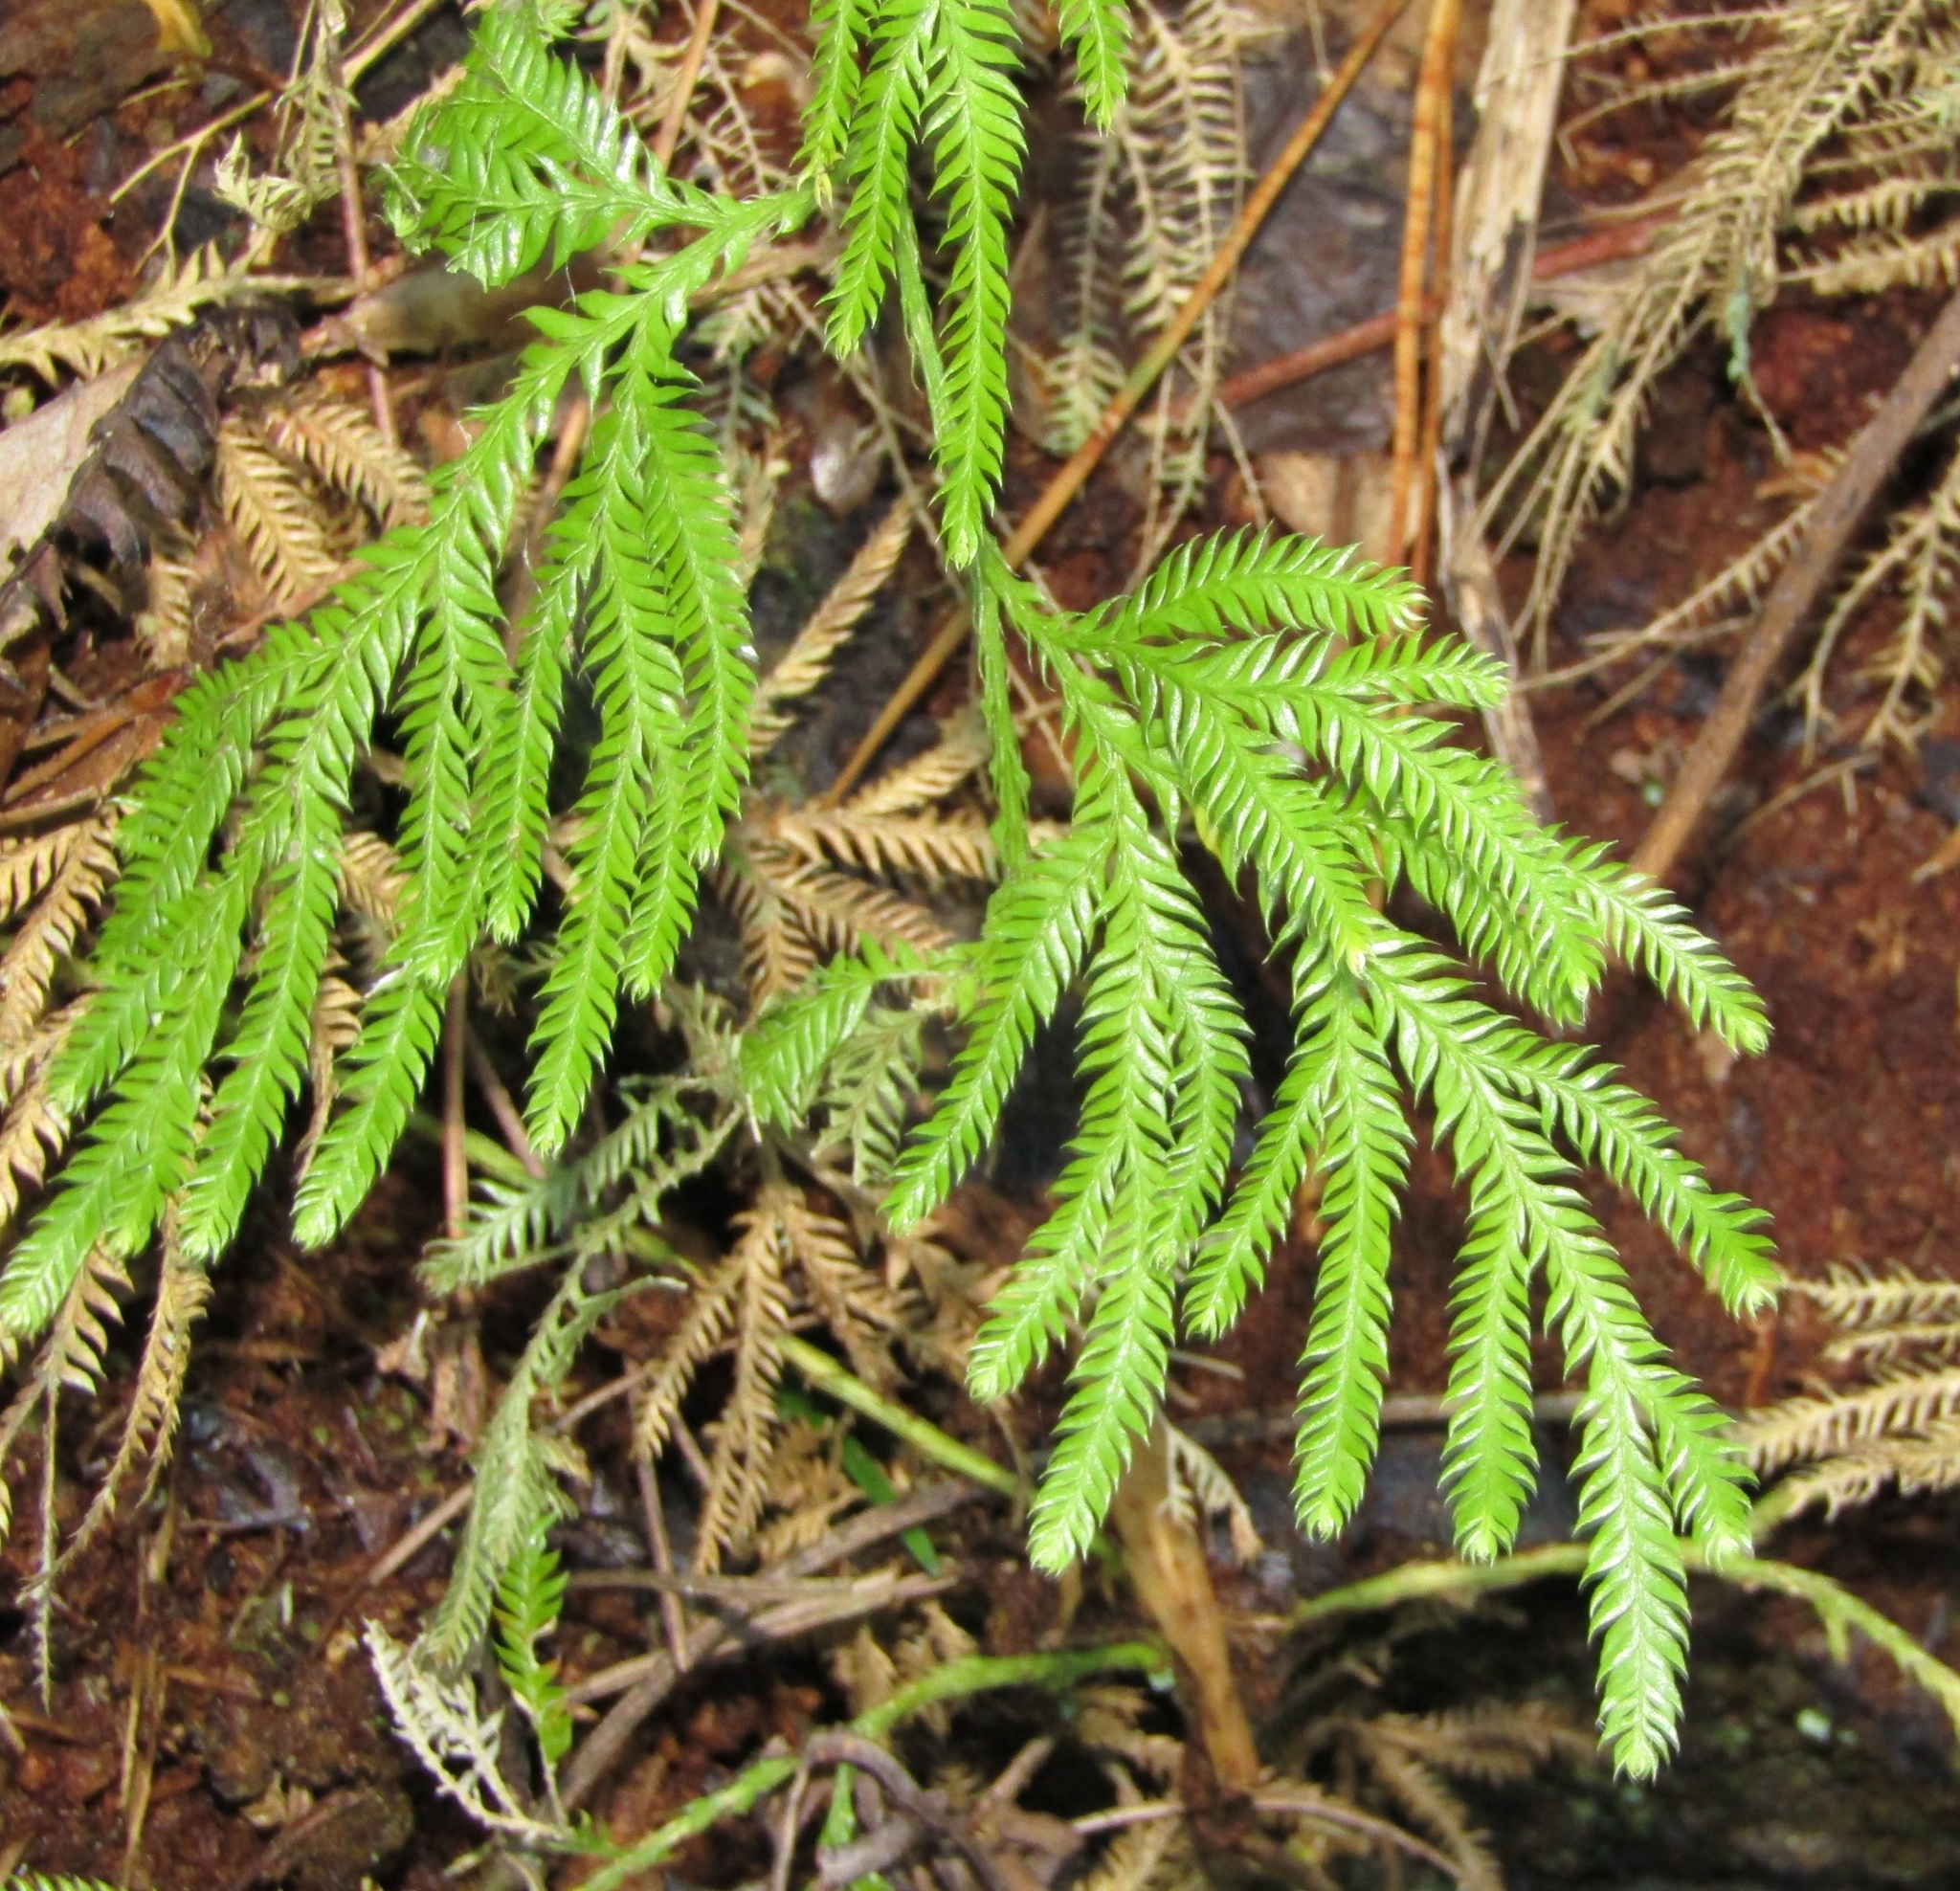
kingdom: Plantae
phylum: Tracheophyta
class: Lycopodiopsida
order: Lycopodiales
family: Lycopodiaceae
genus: Lycopodium
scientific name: Lycopodium volubile
